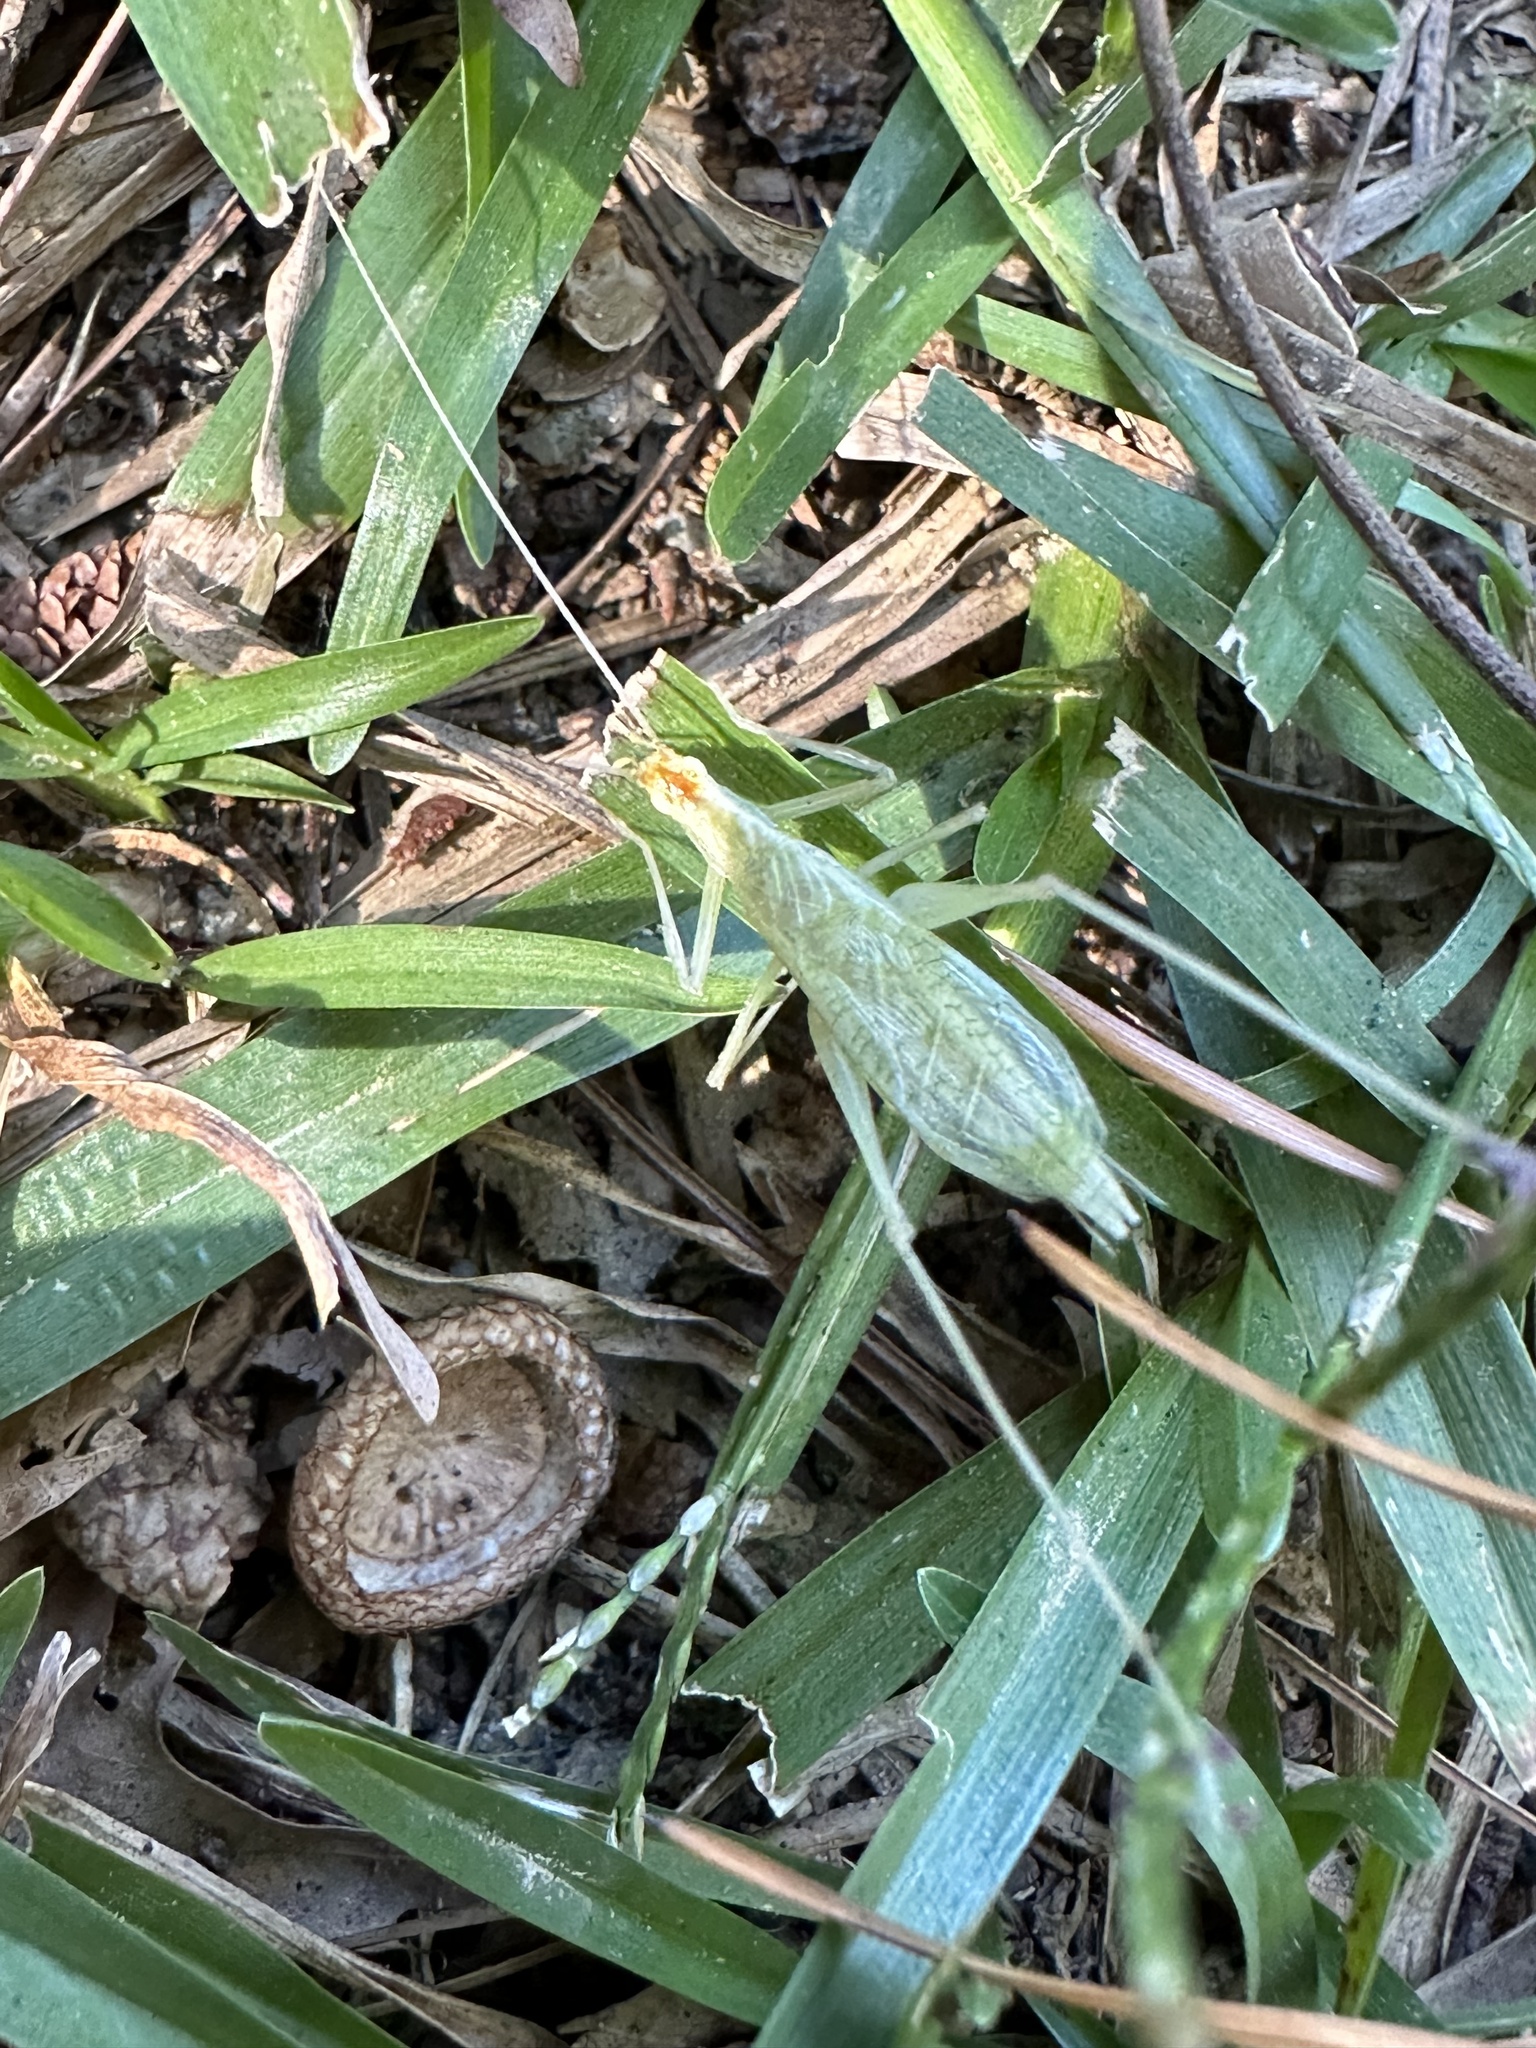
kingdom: Animalia
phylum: Arthropoda
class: Insecta
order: Orthoptera
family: Gryllidae
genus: Oecanthus
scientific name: Oecanthus niveus
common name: Narrow-winged tree cricket
